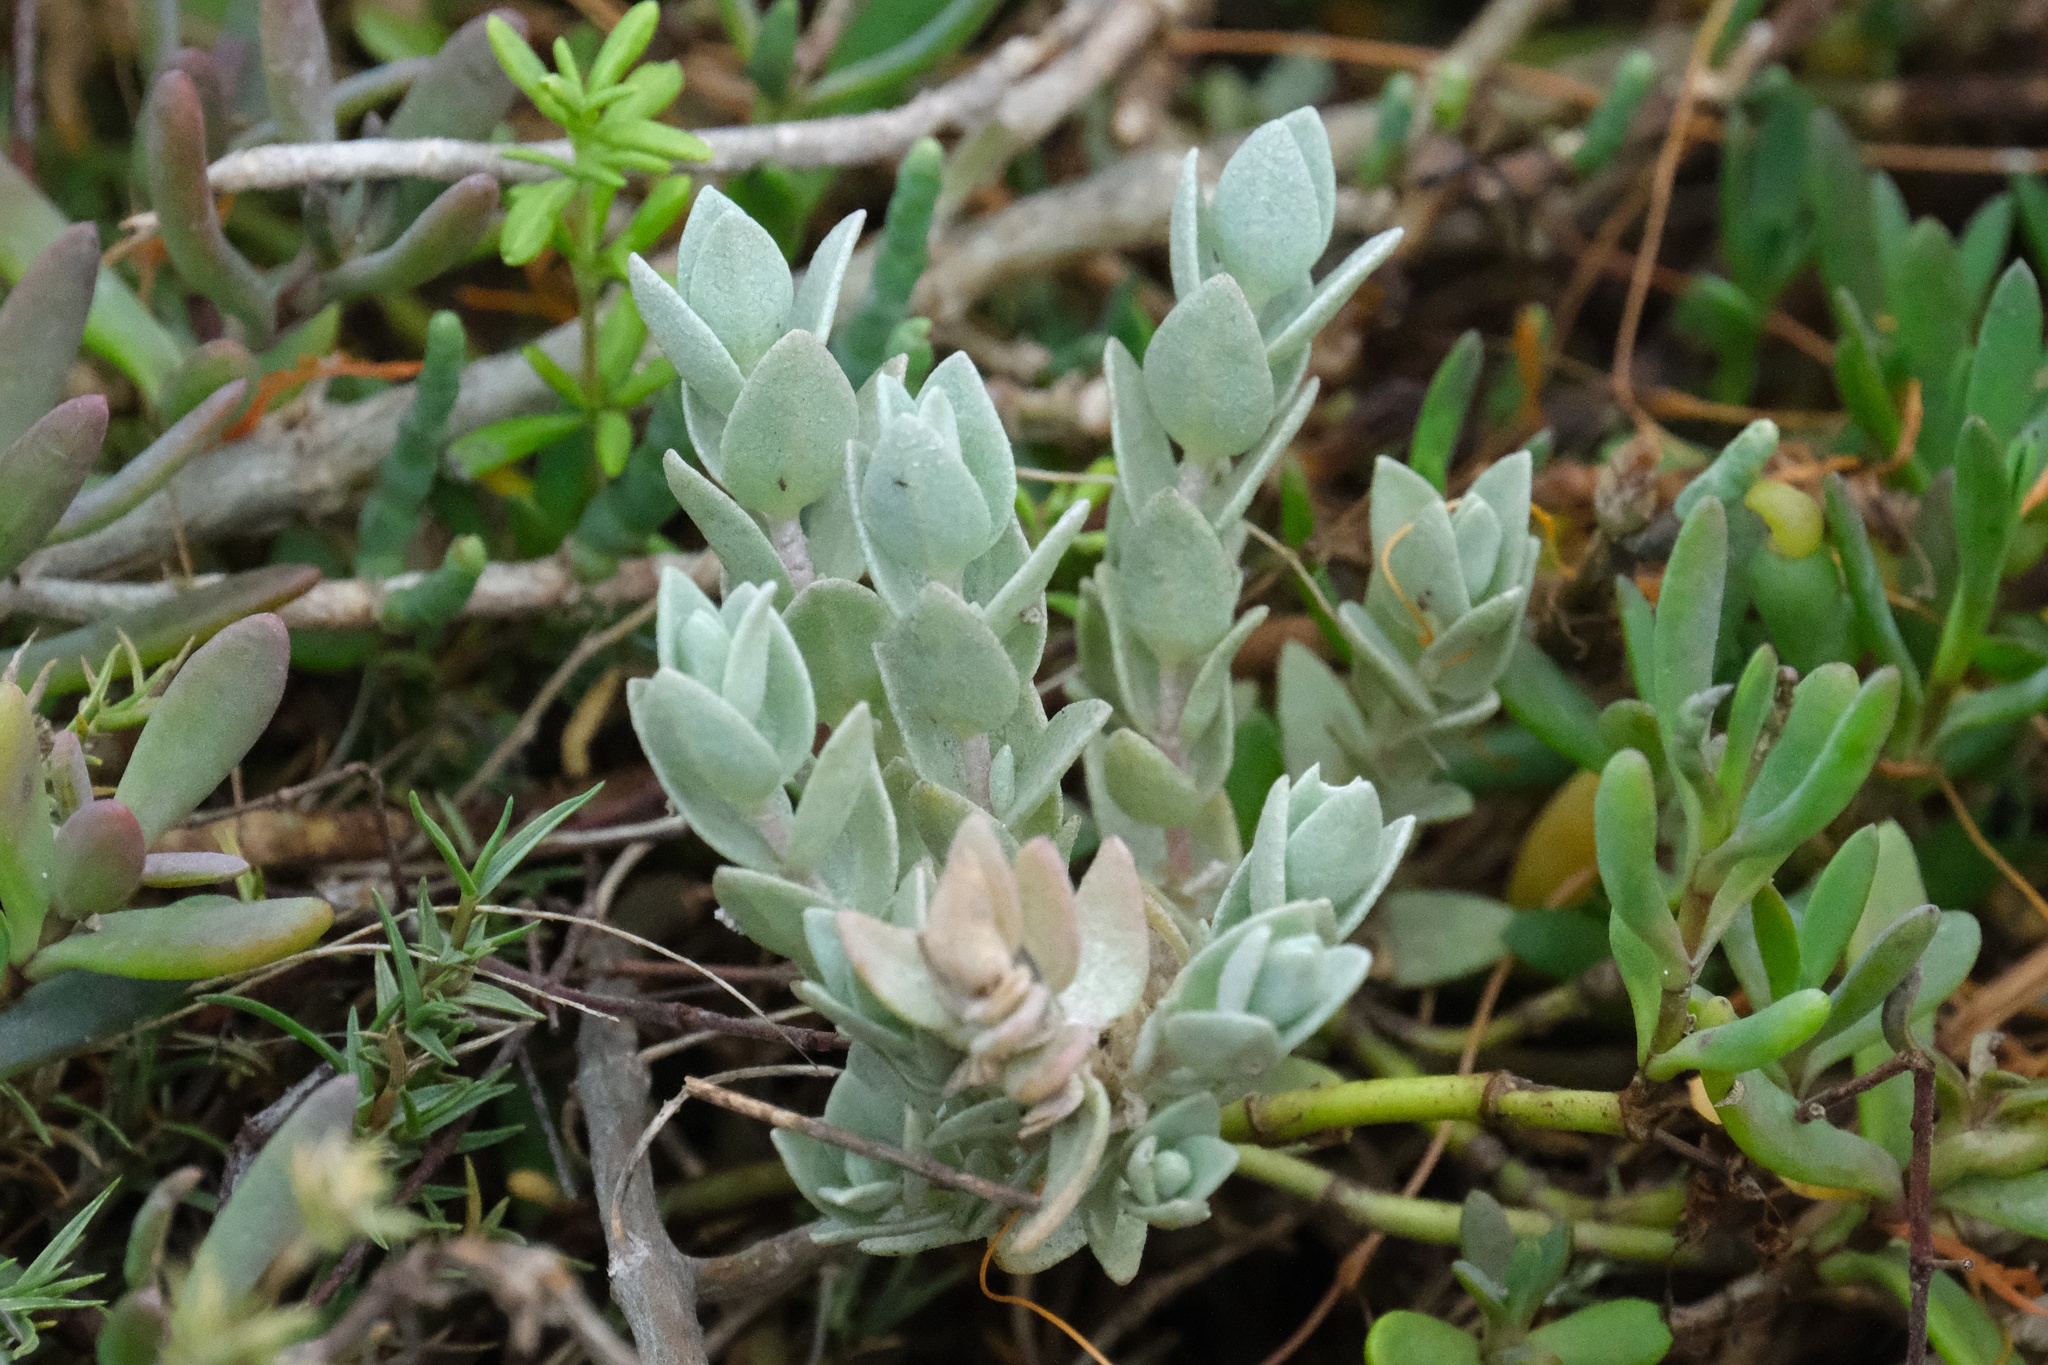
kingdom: Plantae
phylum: Tracheophyta
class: Magnoliopsida
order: Caryophyllales
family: Amaranthaceae
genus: Atriplex
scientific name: Atriplex watsonii
